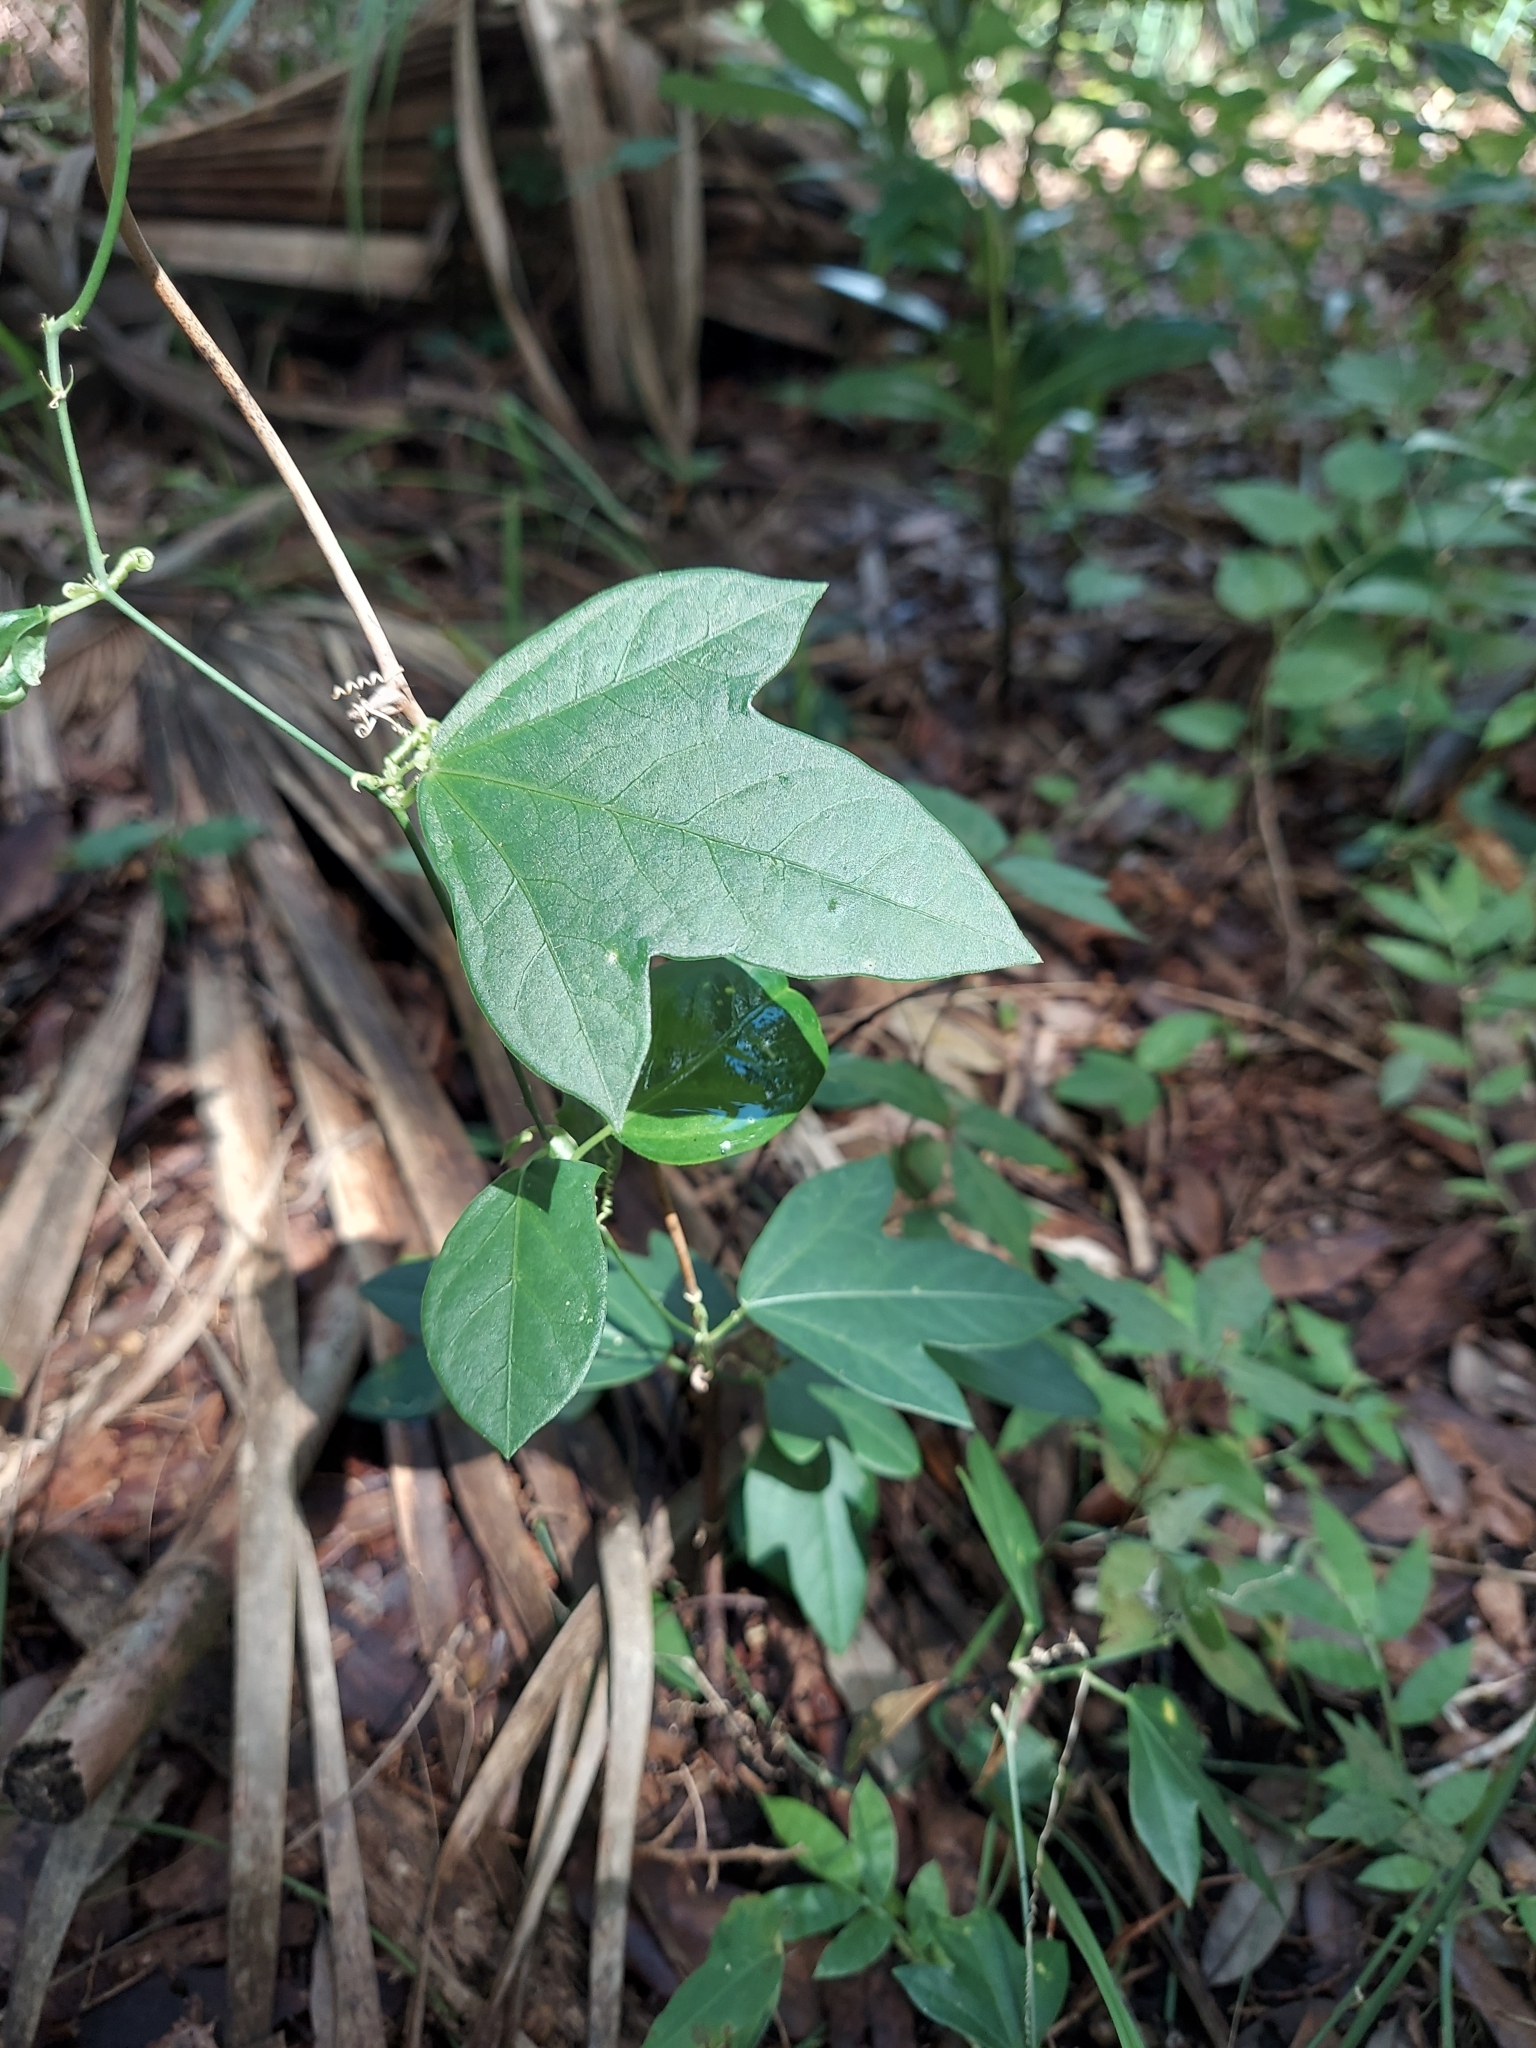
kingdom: Plantae
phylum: Tracheophyta
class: Magnoliopsida
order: Malpighiales
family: Passifloraceae
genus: Passiflora
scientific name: Passiflora pallida
